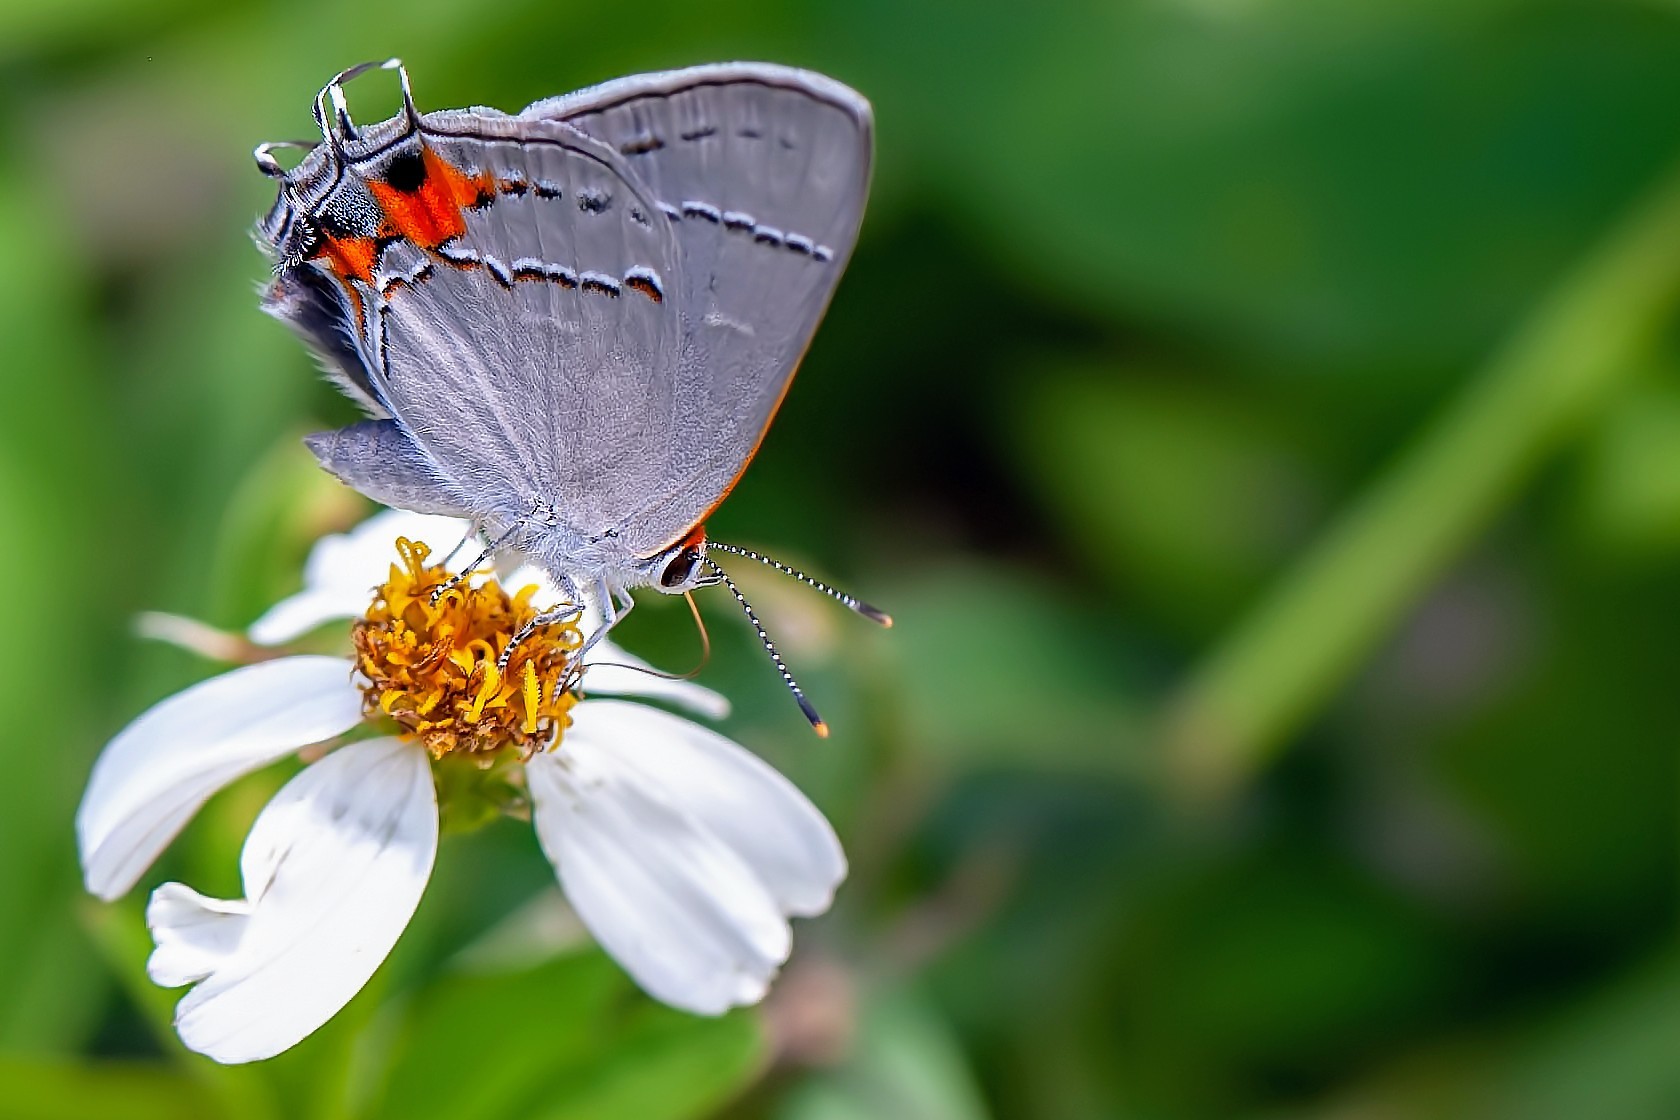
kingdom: Animalia
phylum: Arthropoda
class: Insecta
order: Lepidoptera
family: Lycaenidae
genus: Strymon
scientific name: Strymon melinus
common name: Gray hairstreak
